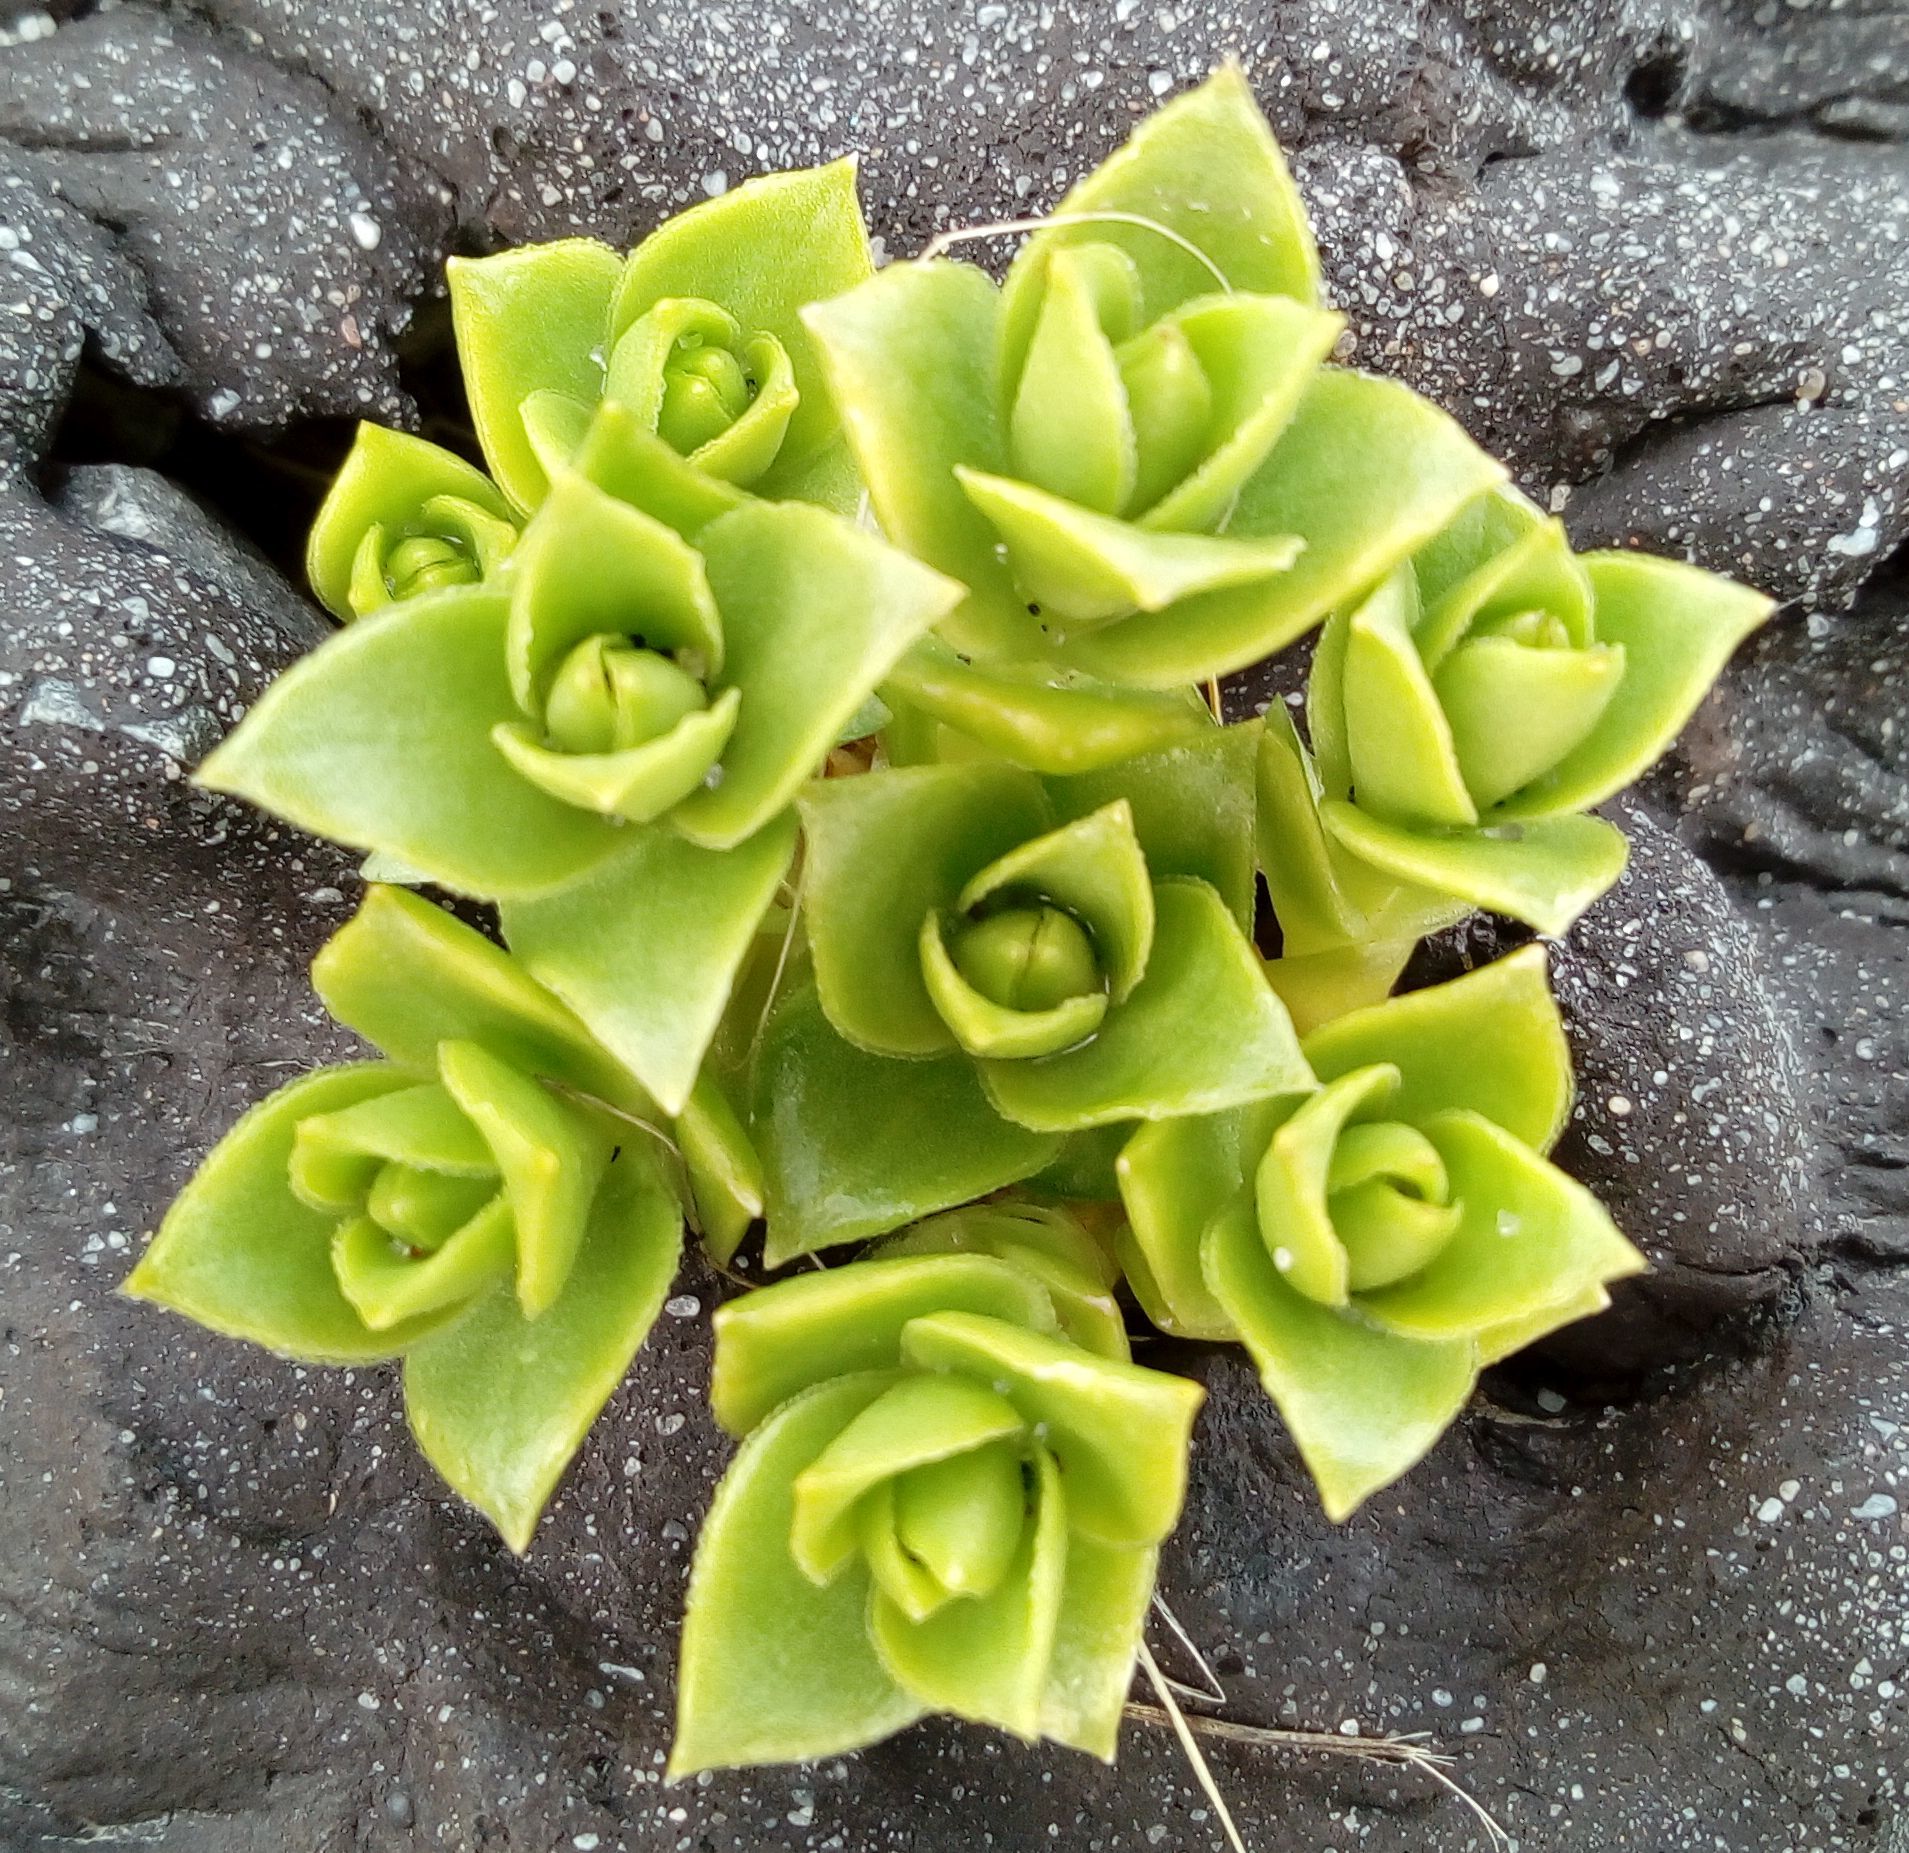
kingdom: Plantae
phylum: Tracheophyta
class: Magnoliopsida
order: Caryophyllales
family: Caryophyllaceae
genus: Honckenya
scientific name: Honckenya peploides
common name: Sea sandwort
